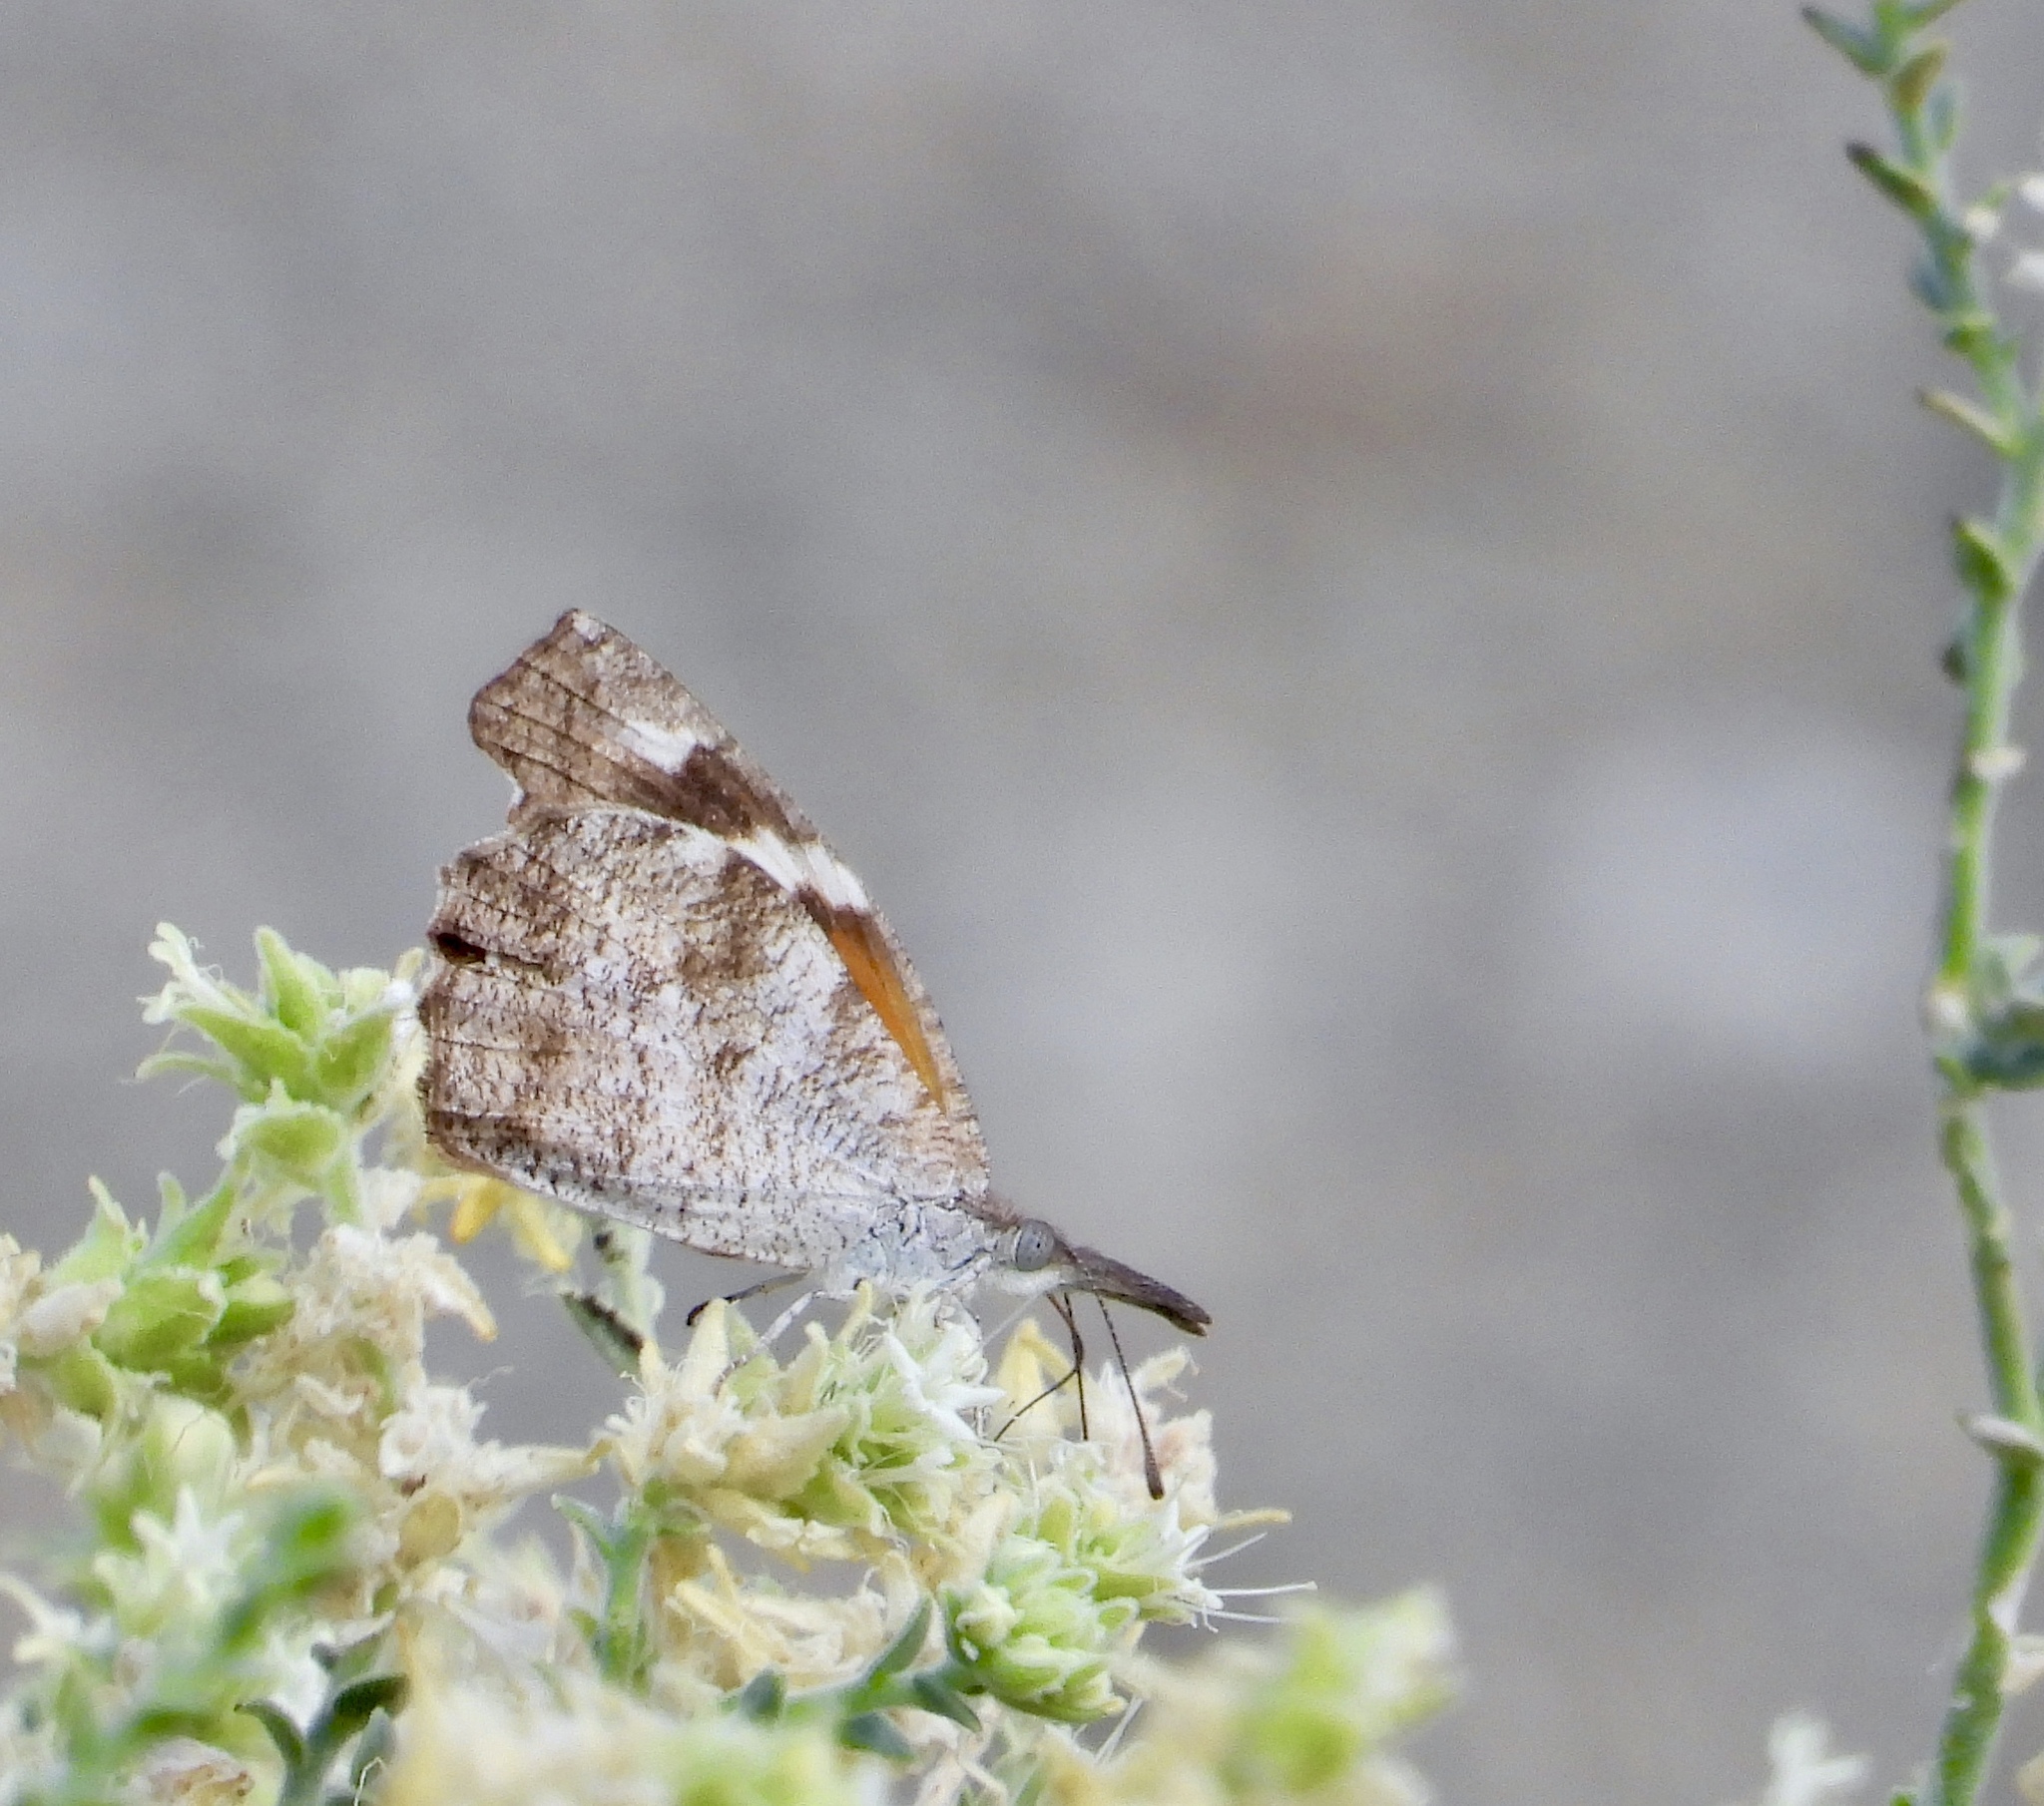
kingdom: Animalia
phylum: Arthropoda
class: Insecta
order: Lepidoptera
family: Nymphalidae
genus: Libytheana
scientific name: Libytheana carinenta
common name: American snout
